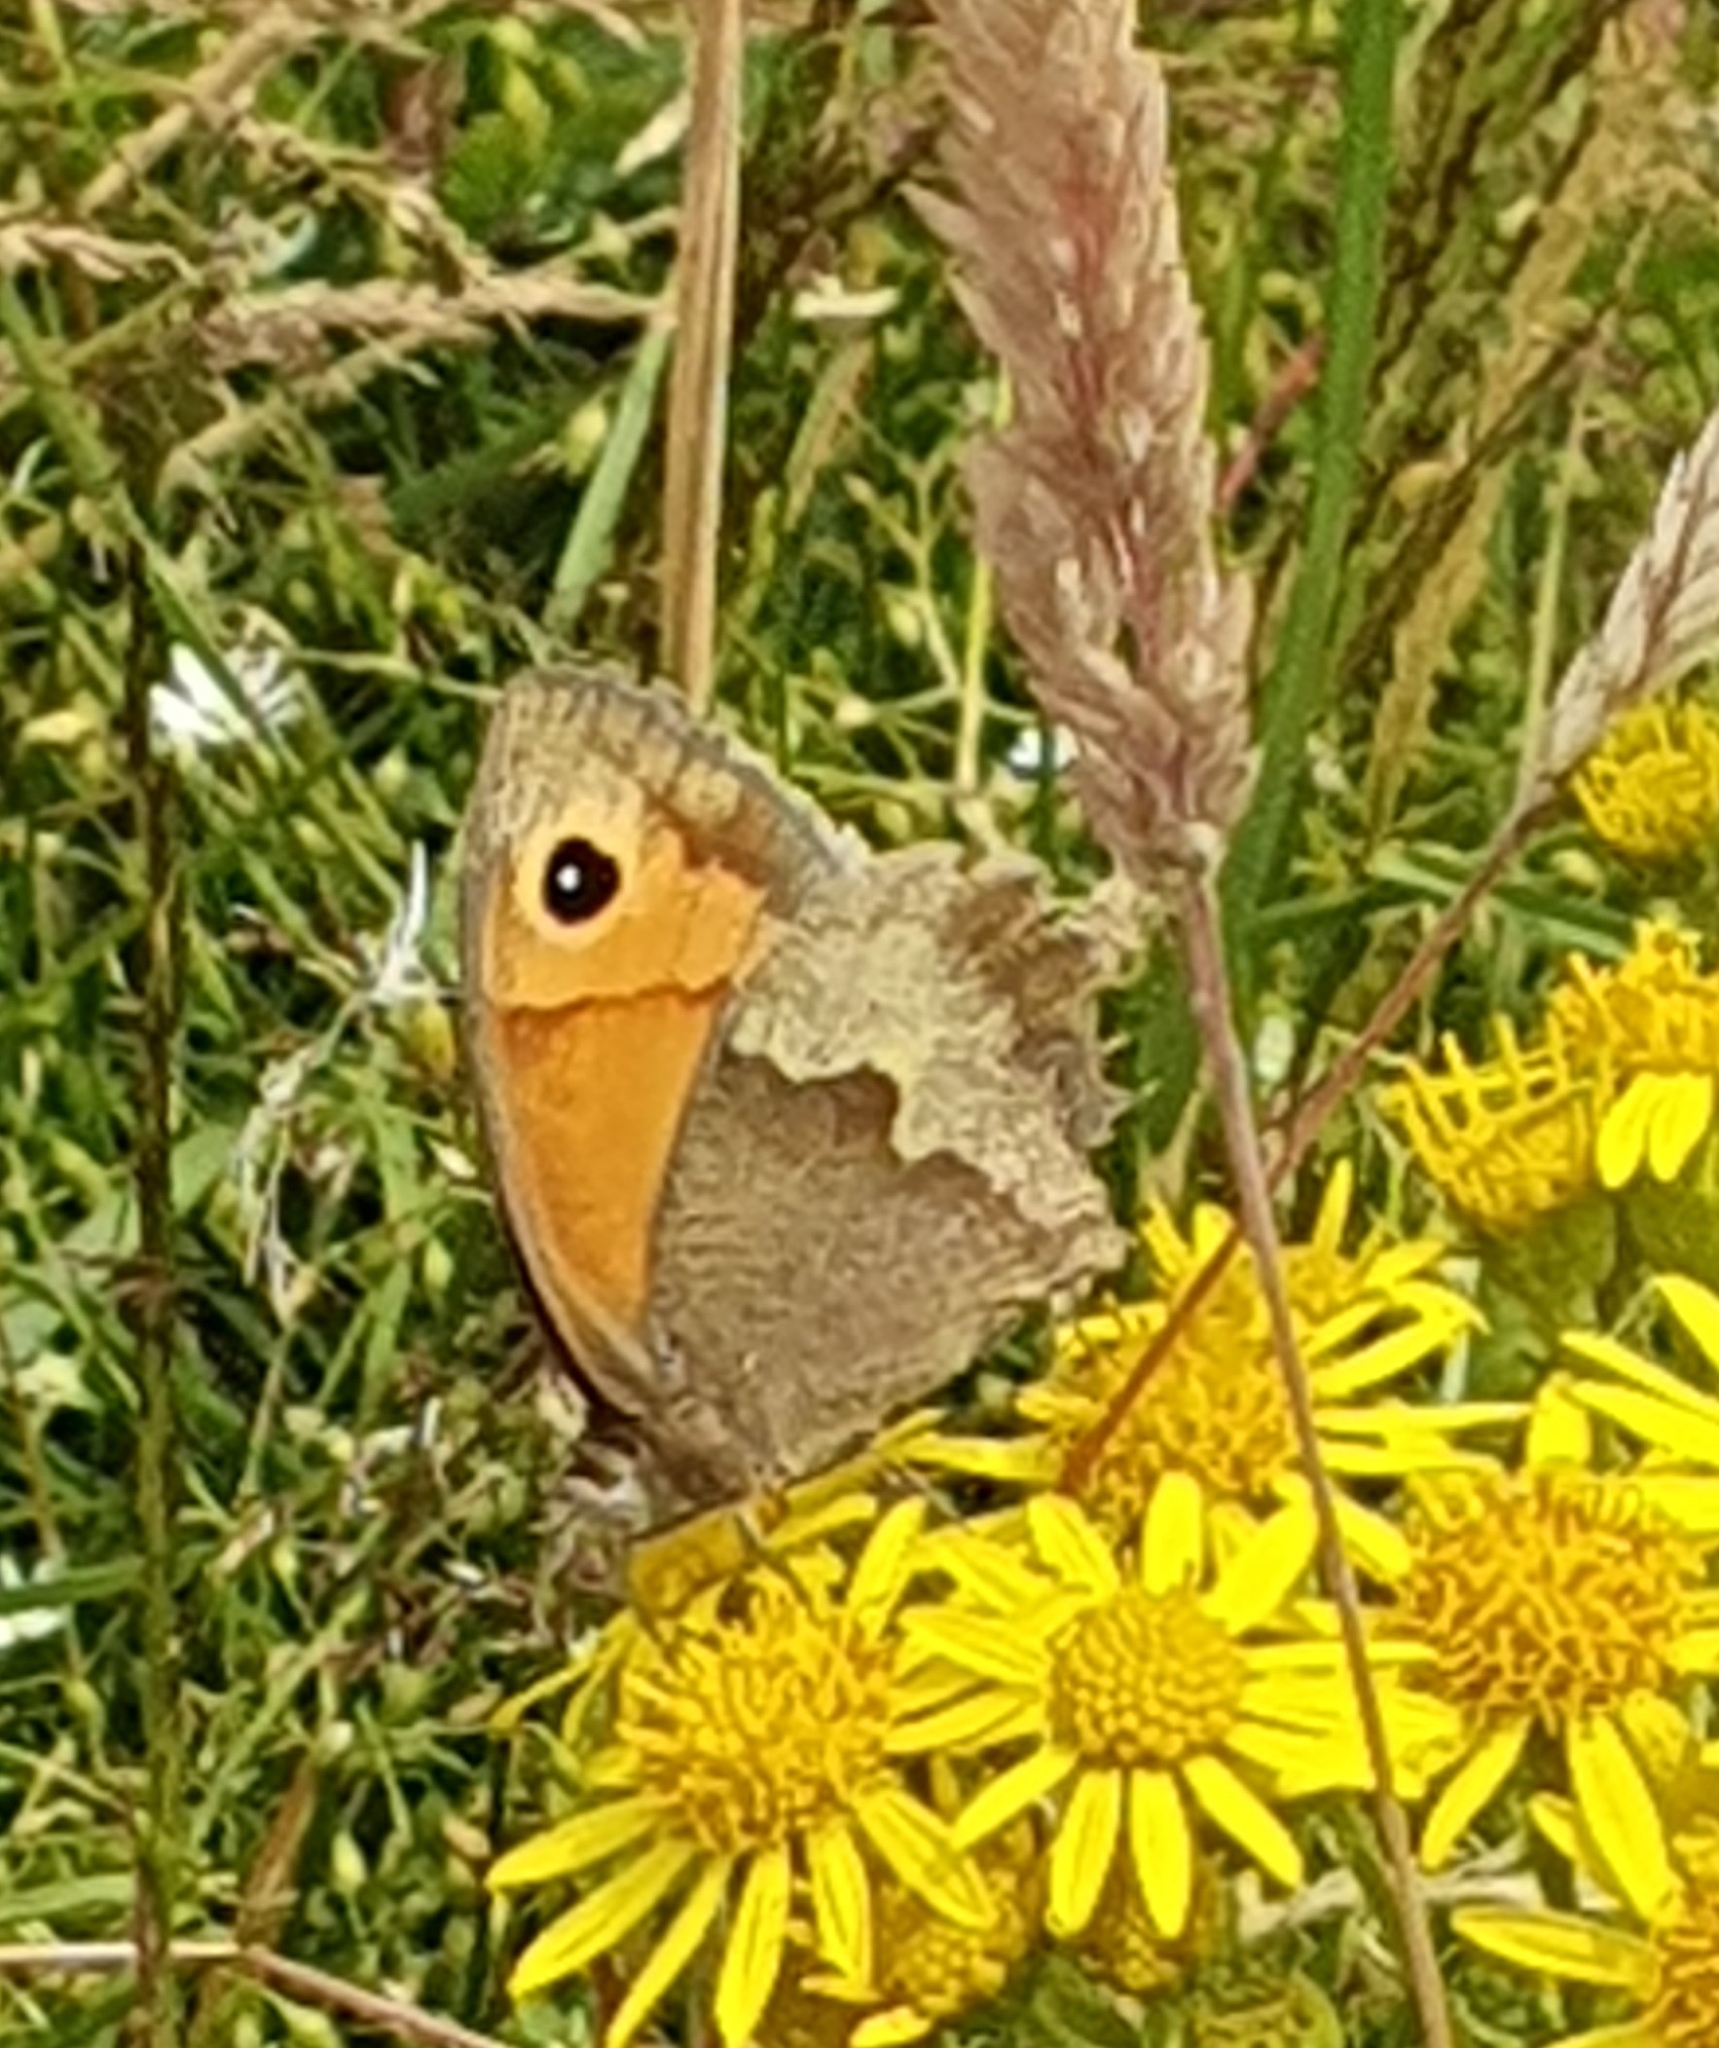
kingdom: Animalia
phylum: Arthropoda
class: Insecta
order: Lepidoptera
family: Nymphalidae
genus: Maniola
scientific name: Maniola jurtina
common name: Meadow brown
